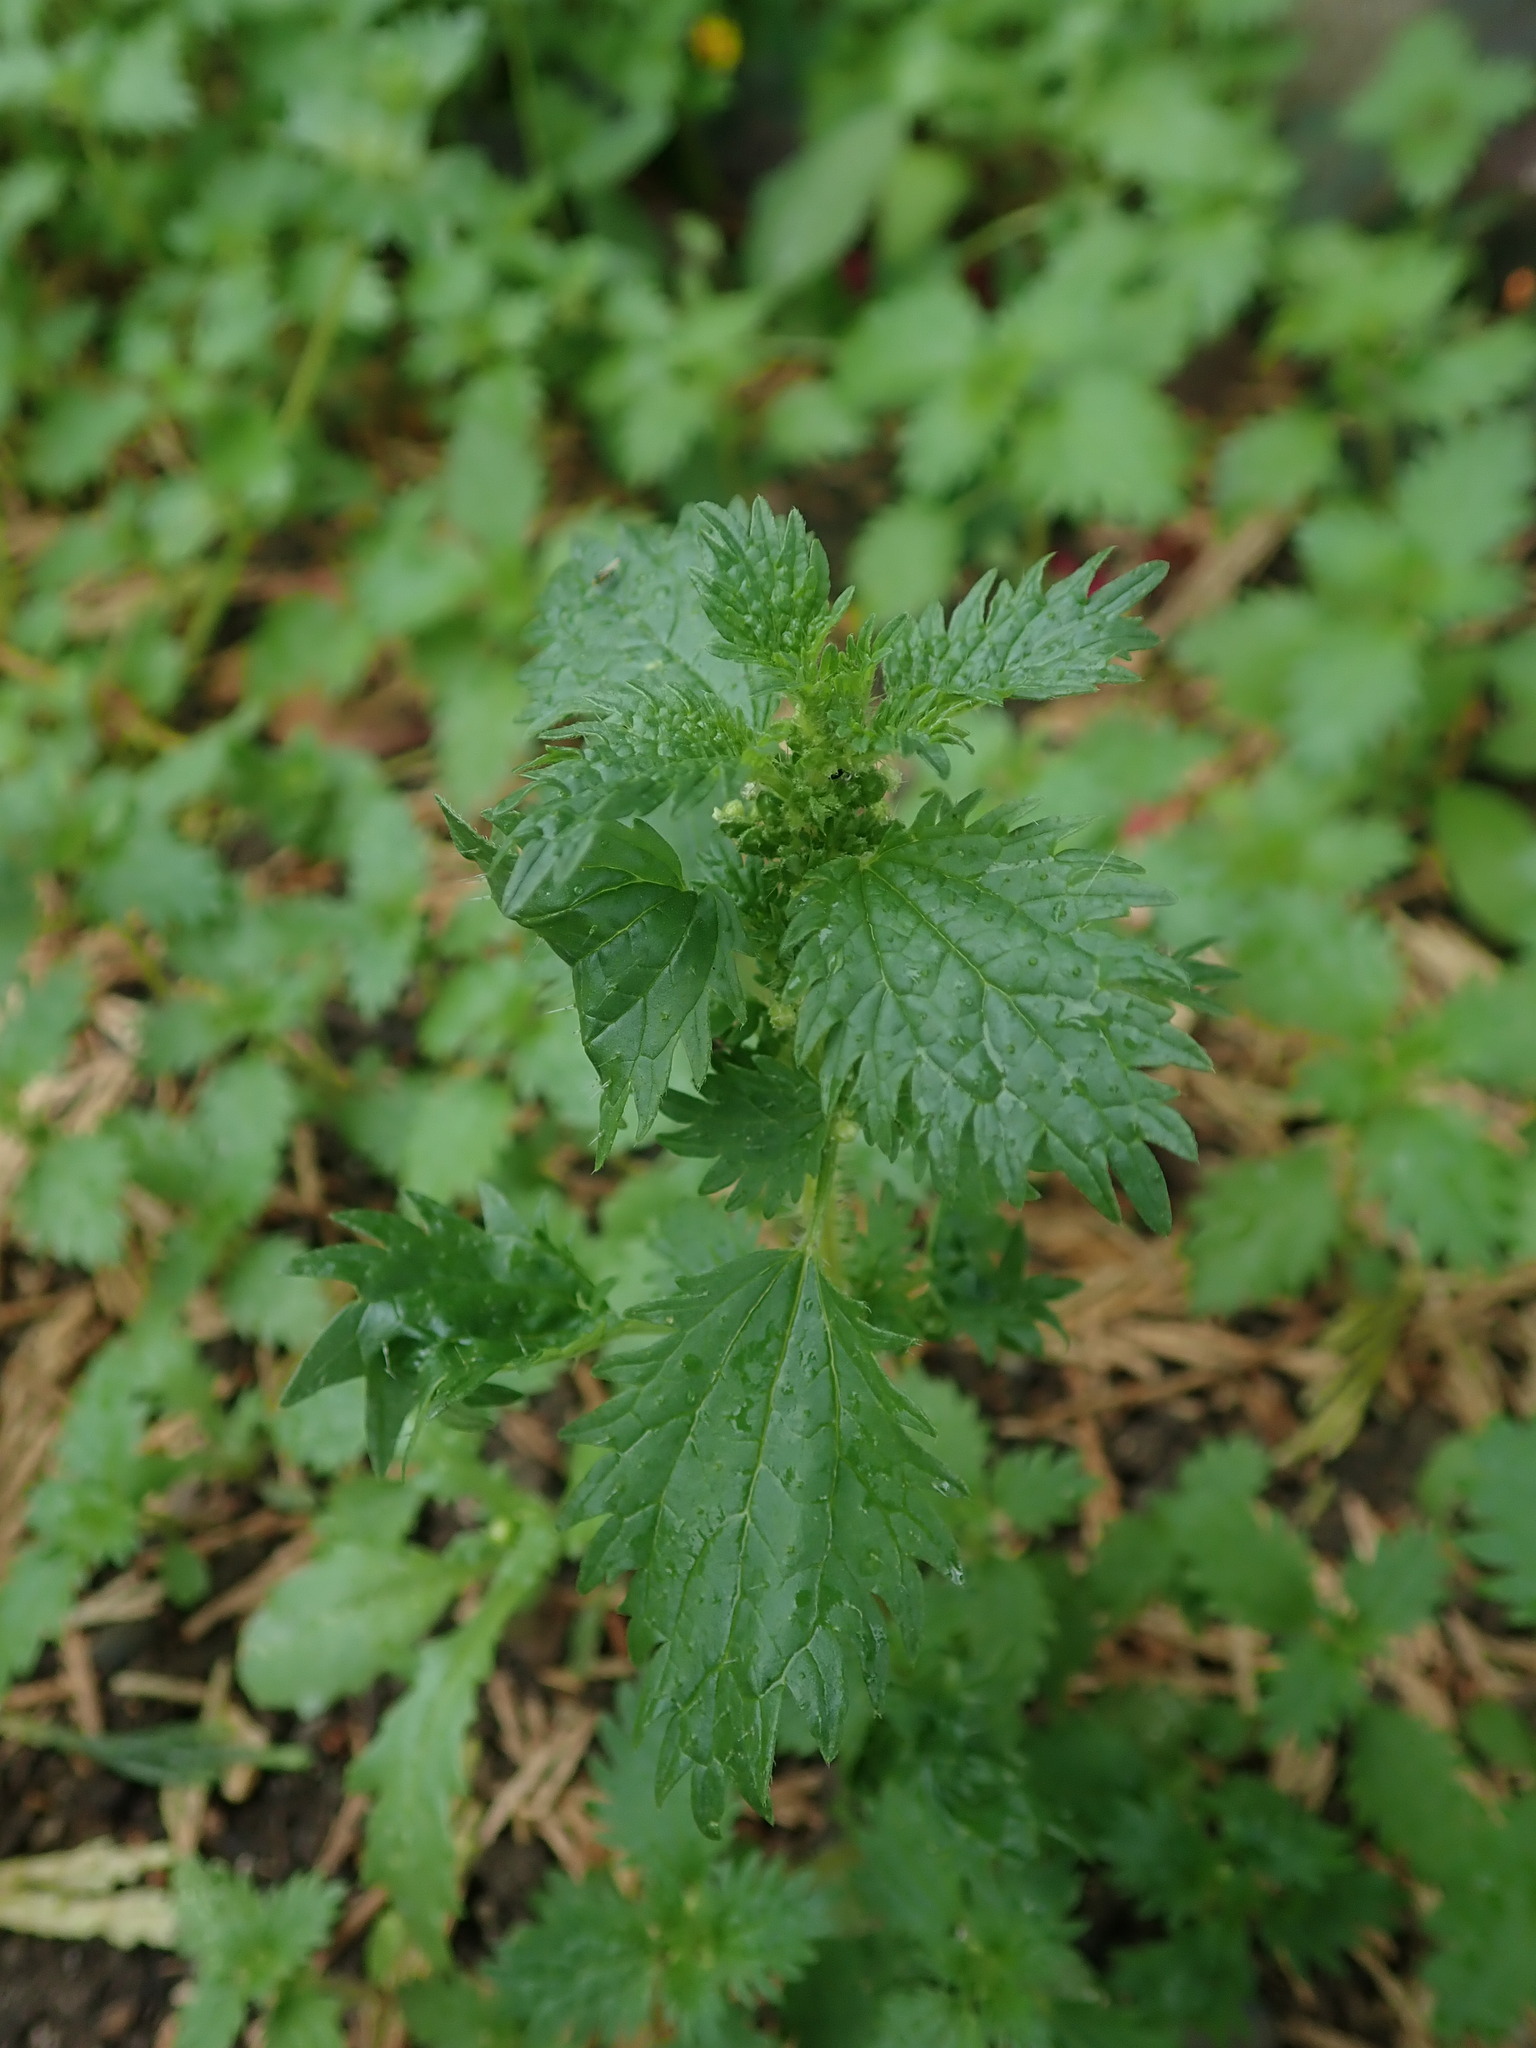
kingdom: Plantae
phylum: Tracheophyta
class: Magnoliopsida
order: Rosales
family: Urticaceae
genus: Urtica
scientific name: Urtica urens
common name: Dwarf nettle
